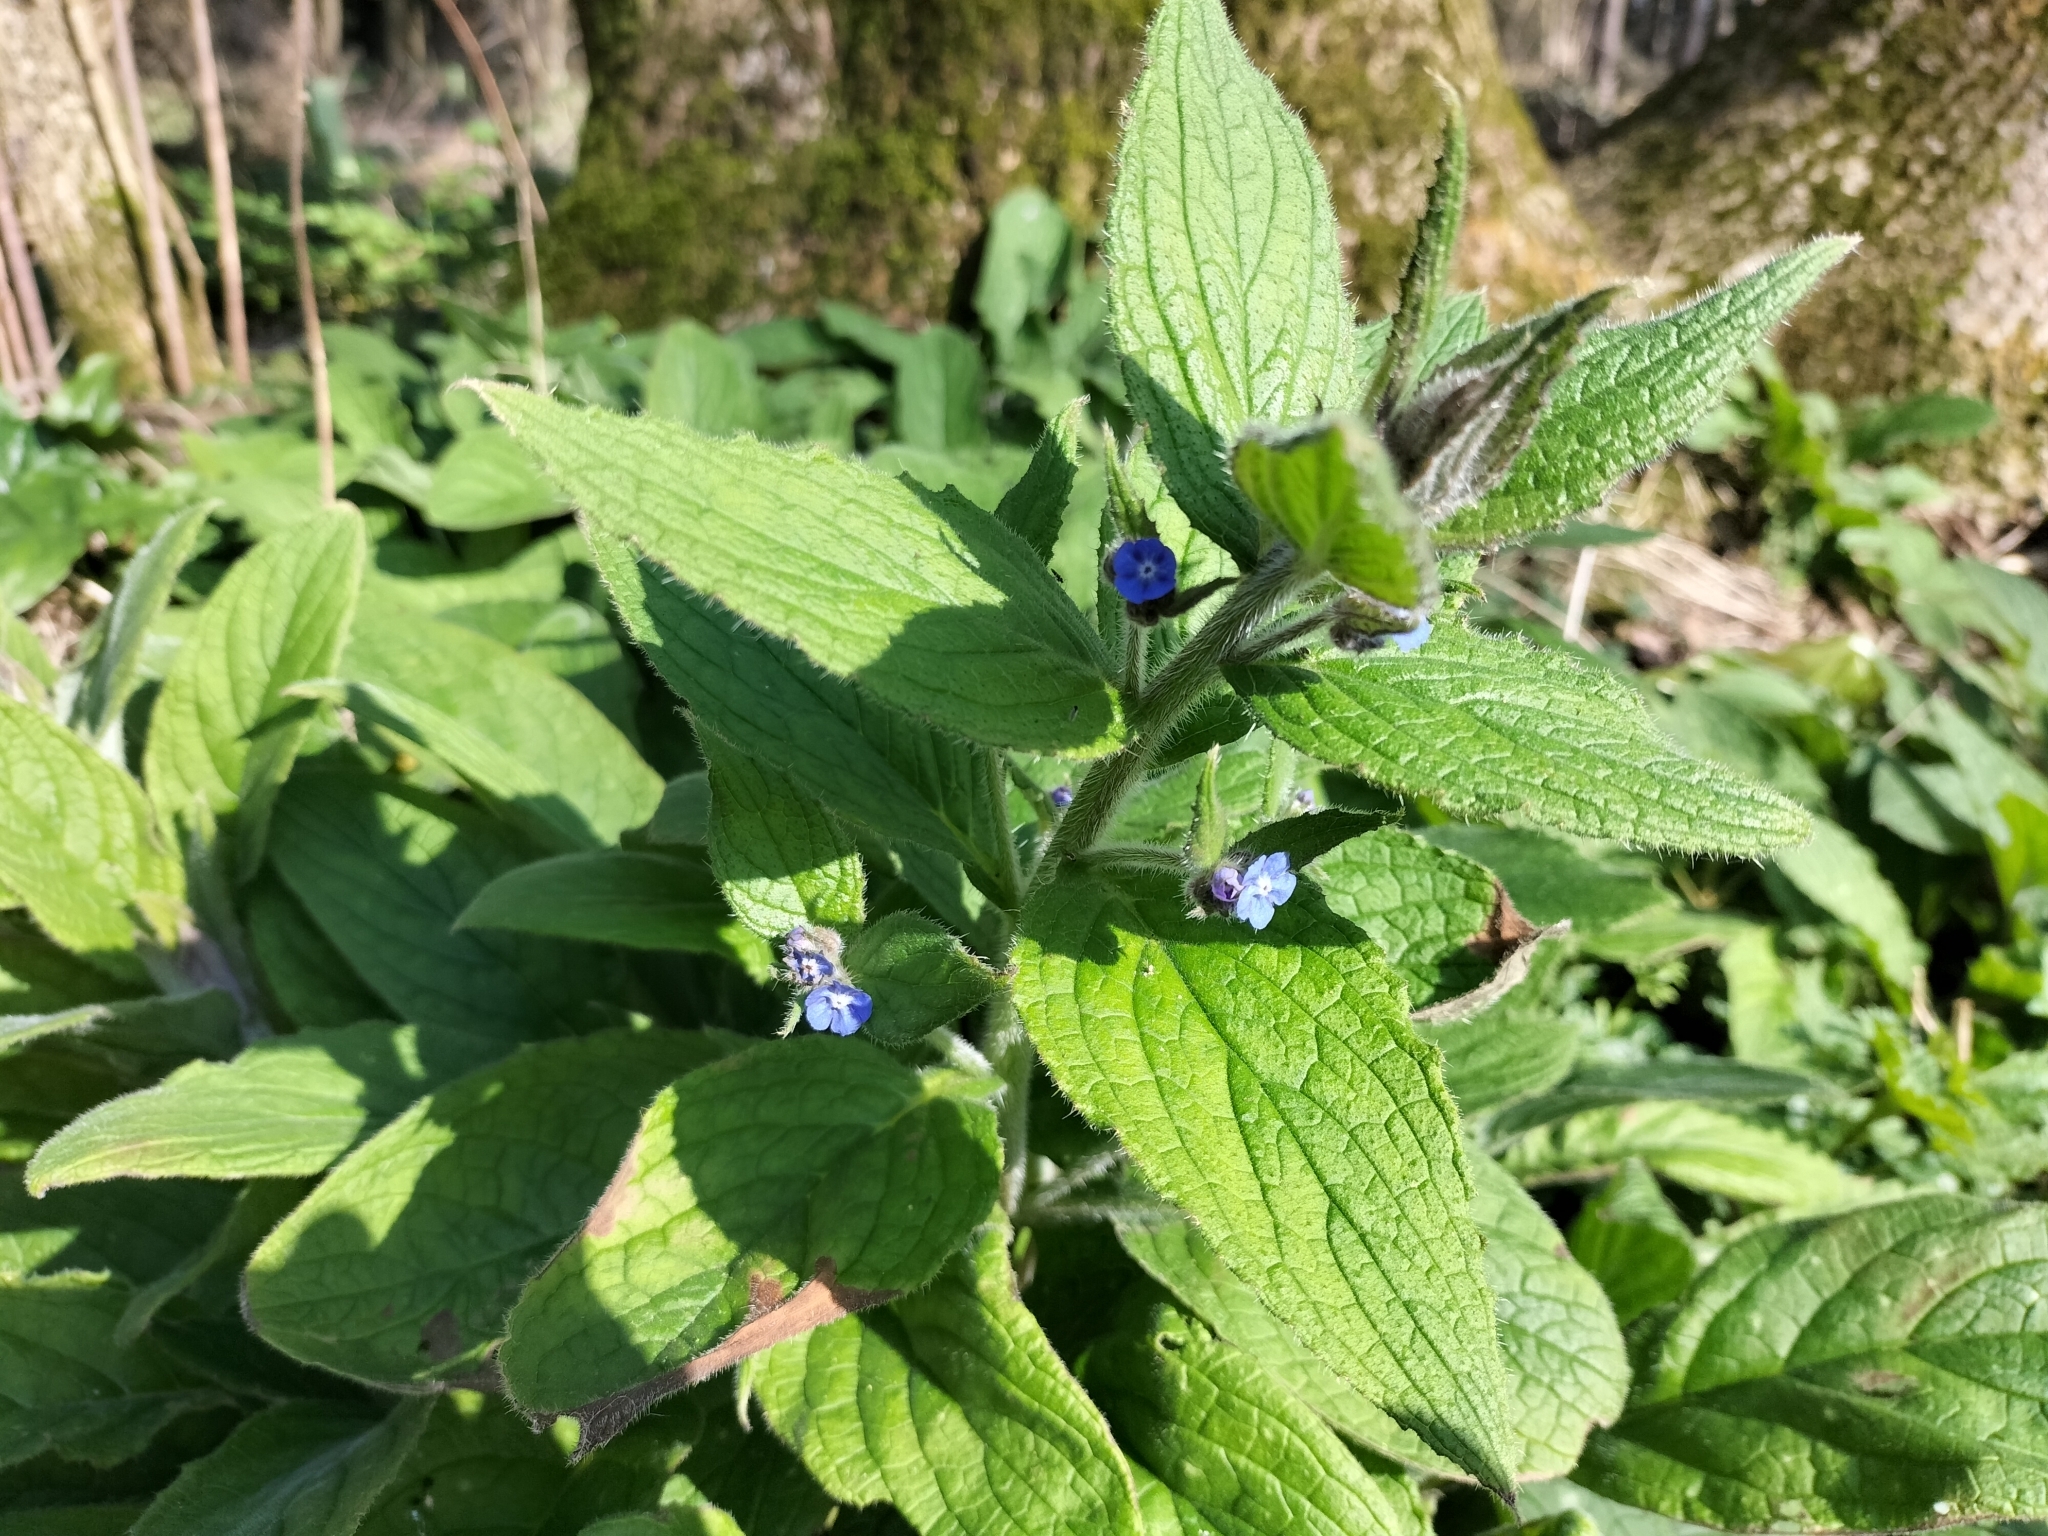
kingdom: Plantae
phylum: Tracheophyta
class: Magnoliopsida
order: Boraginales
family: Boraginaceae
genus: Pentaglottis
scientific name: Pentaglottis sempervirens
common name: Green alkanet
